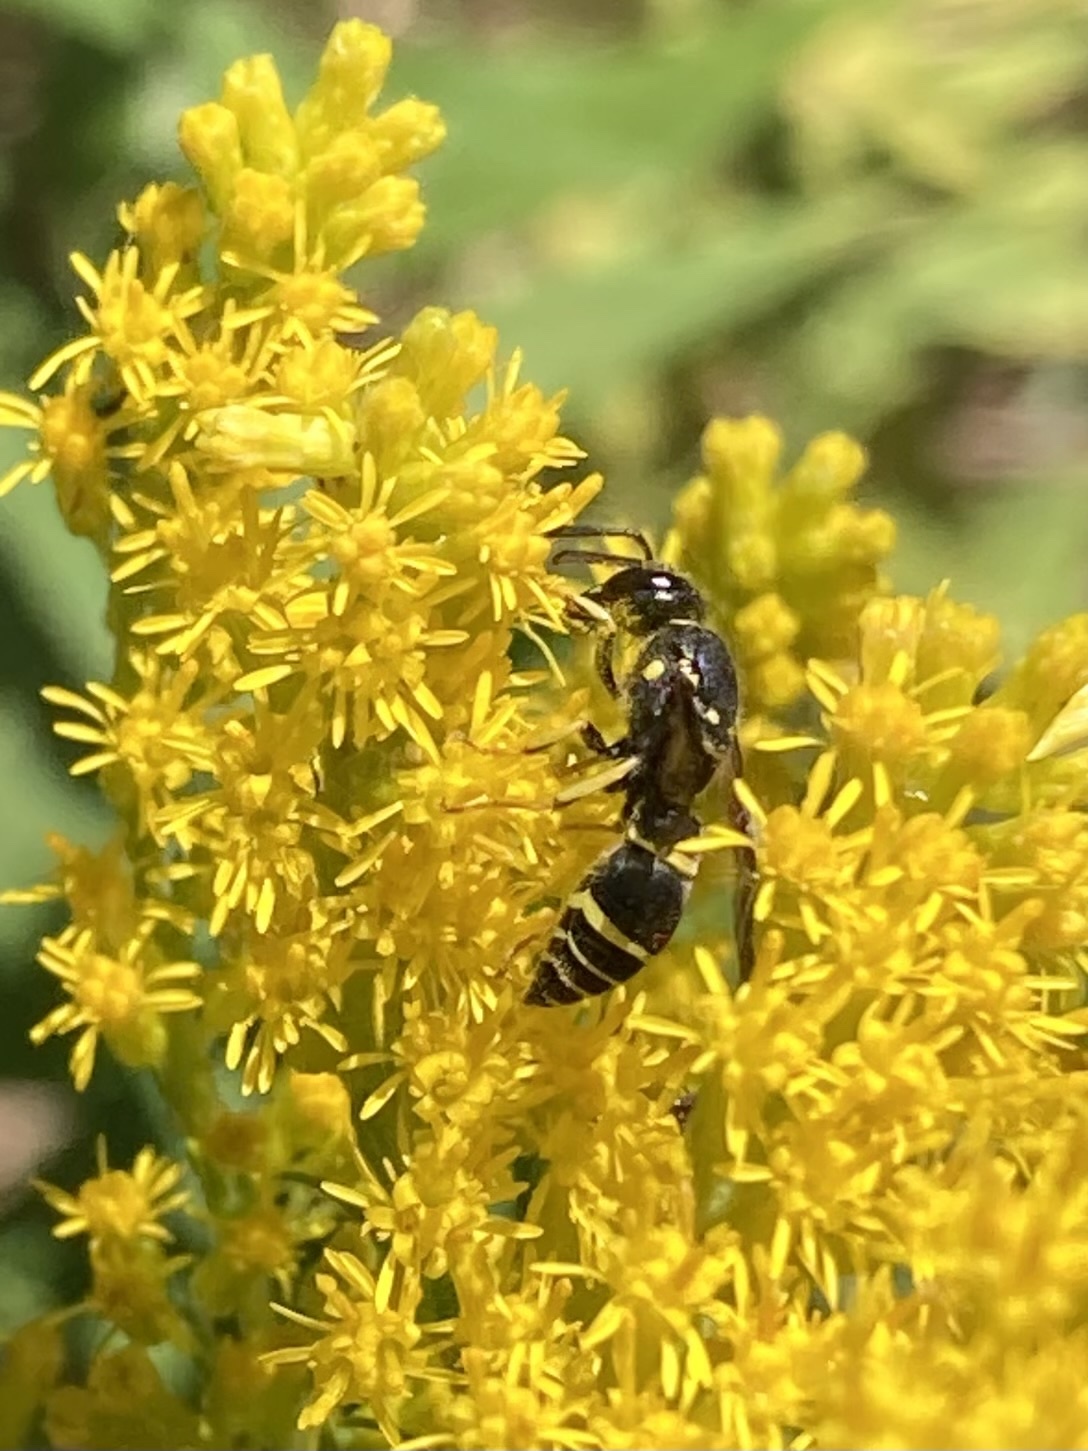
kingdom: Animalia
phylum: Arthropoda
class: Insecta
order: Hymenoptera
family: Vespidae
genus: Ancistrocerus
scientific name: Ancistrocerus adiabatus
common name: Bramble mason wasp
